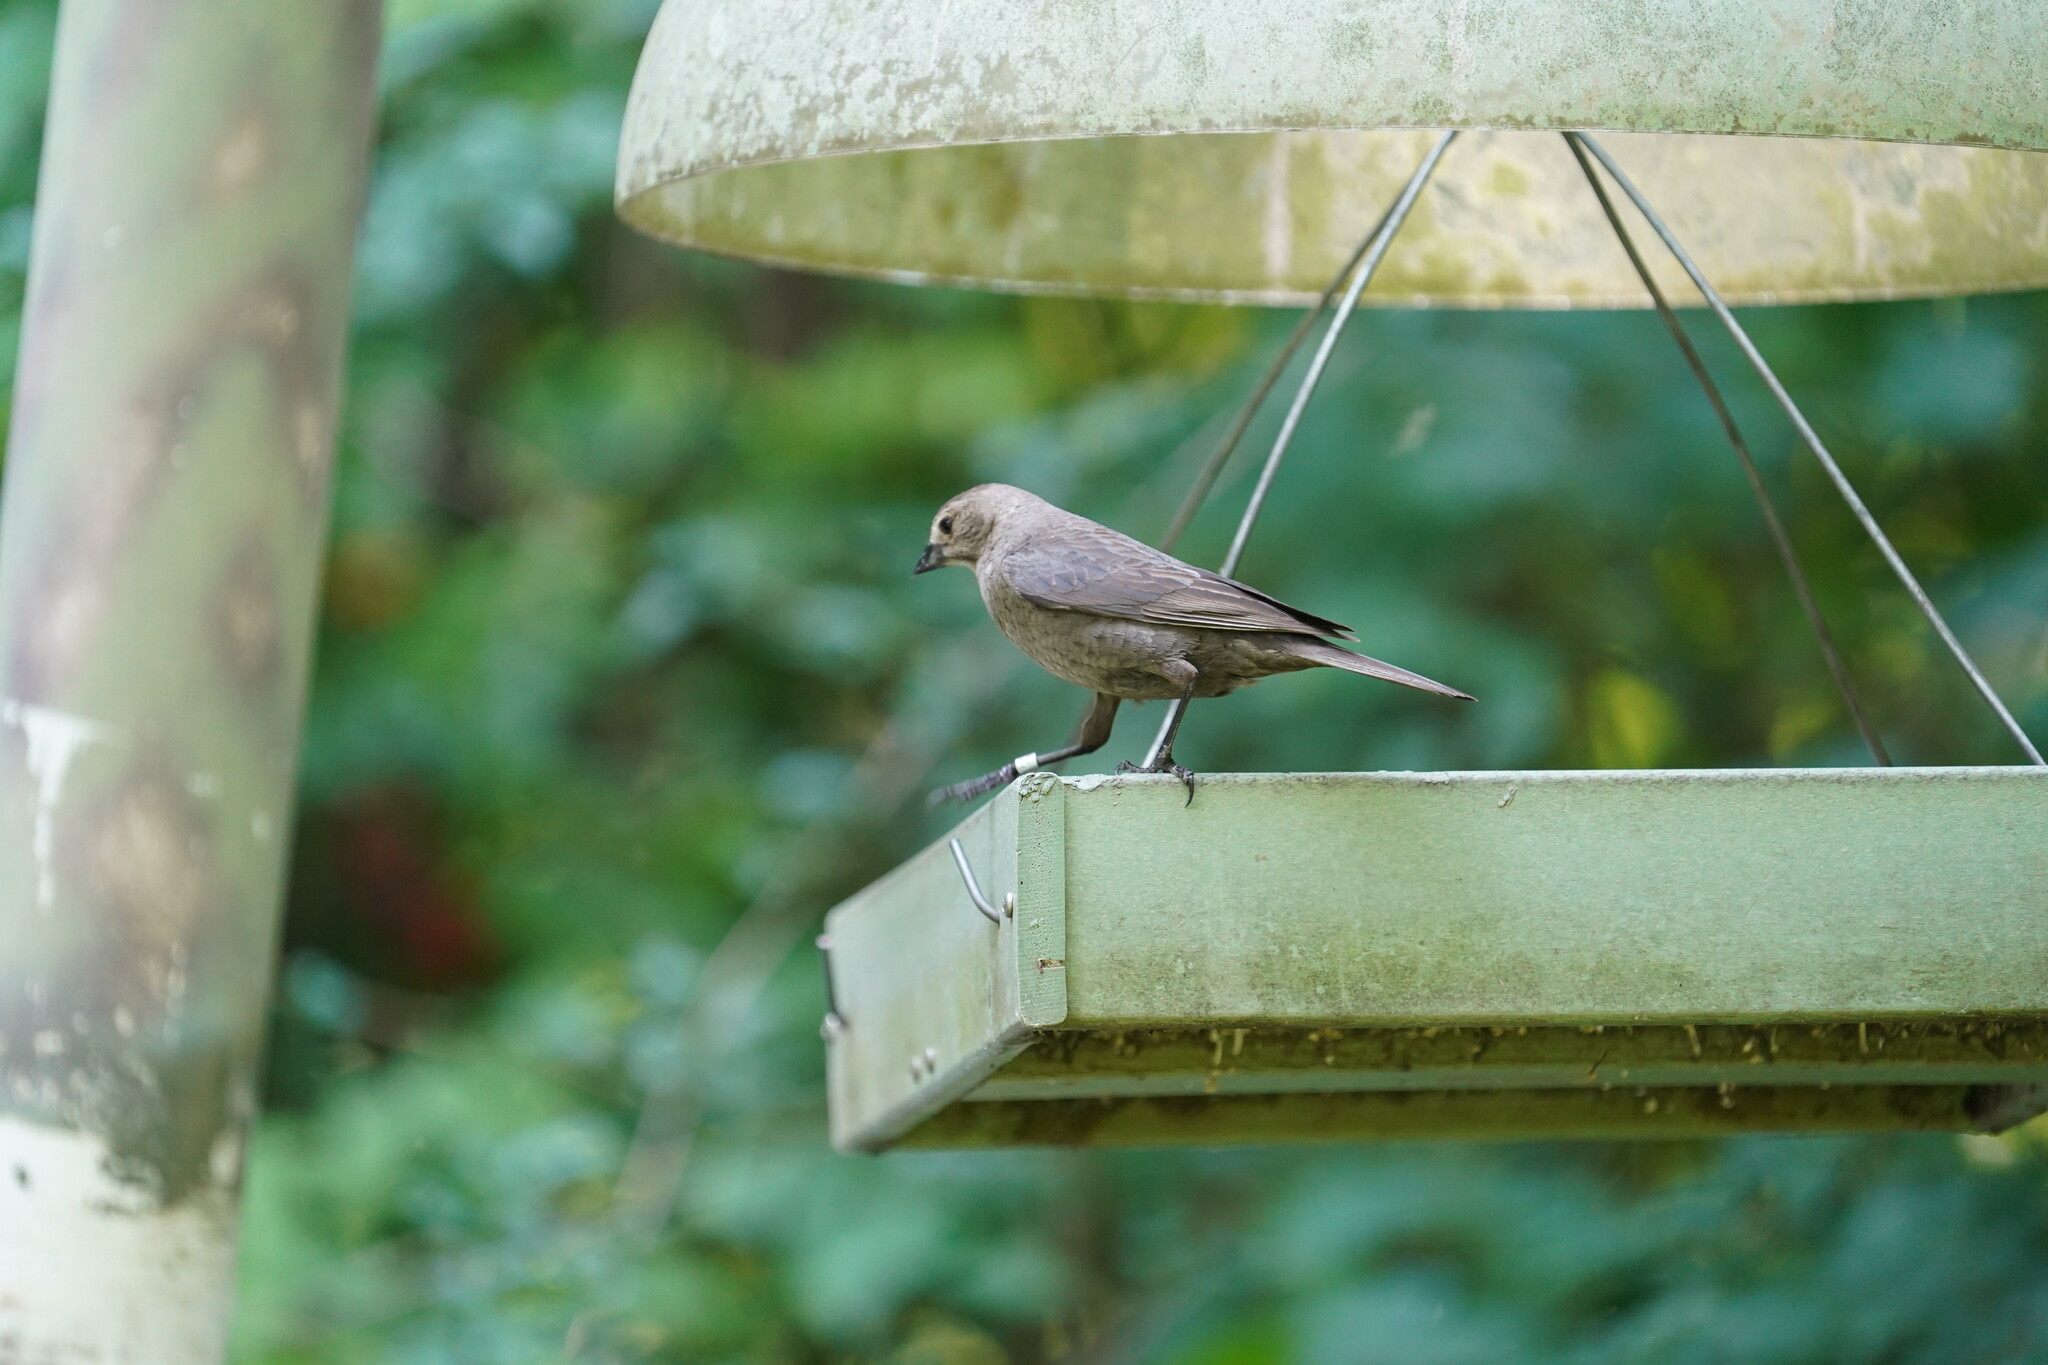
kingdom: Animalia
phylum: Chordata
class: Aves
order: Passeriformes
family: Icteridae
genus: Molothrus
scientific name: Molothrus ater
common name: Brown-headed cowbird
